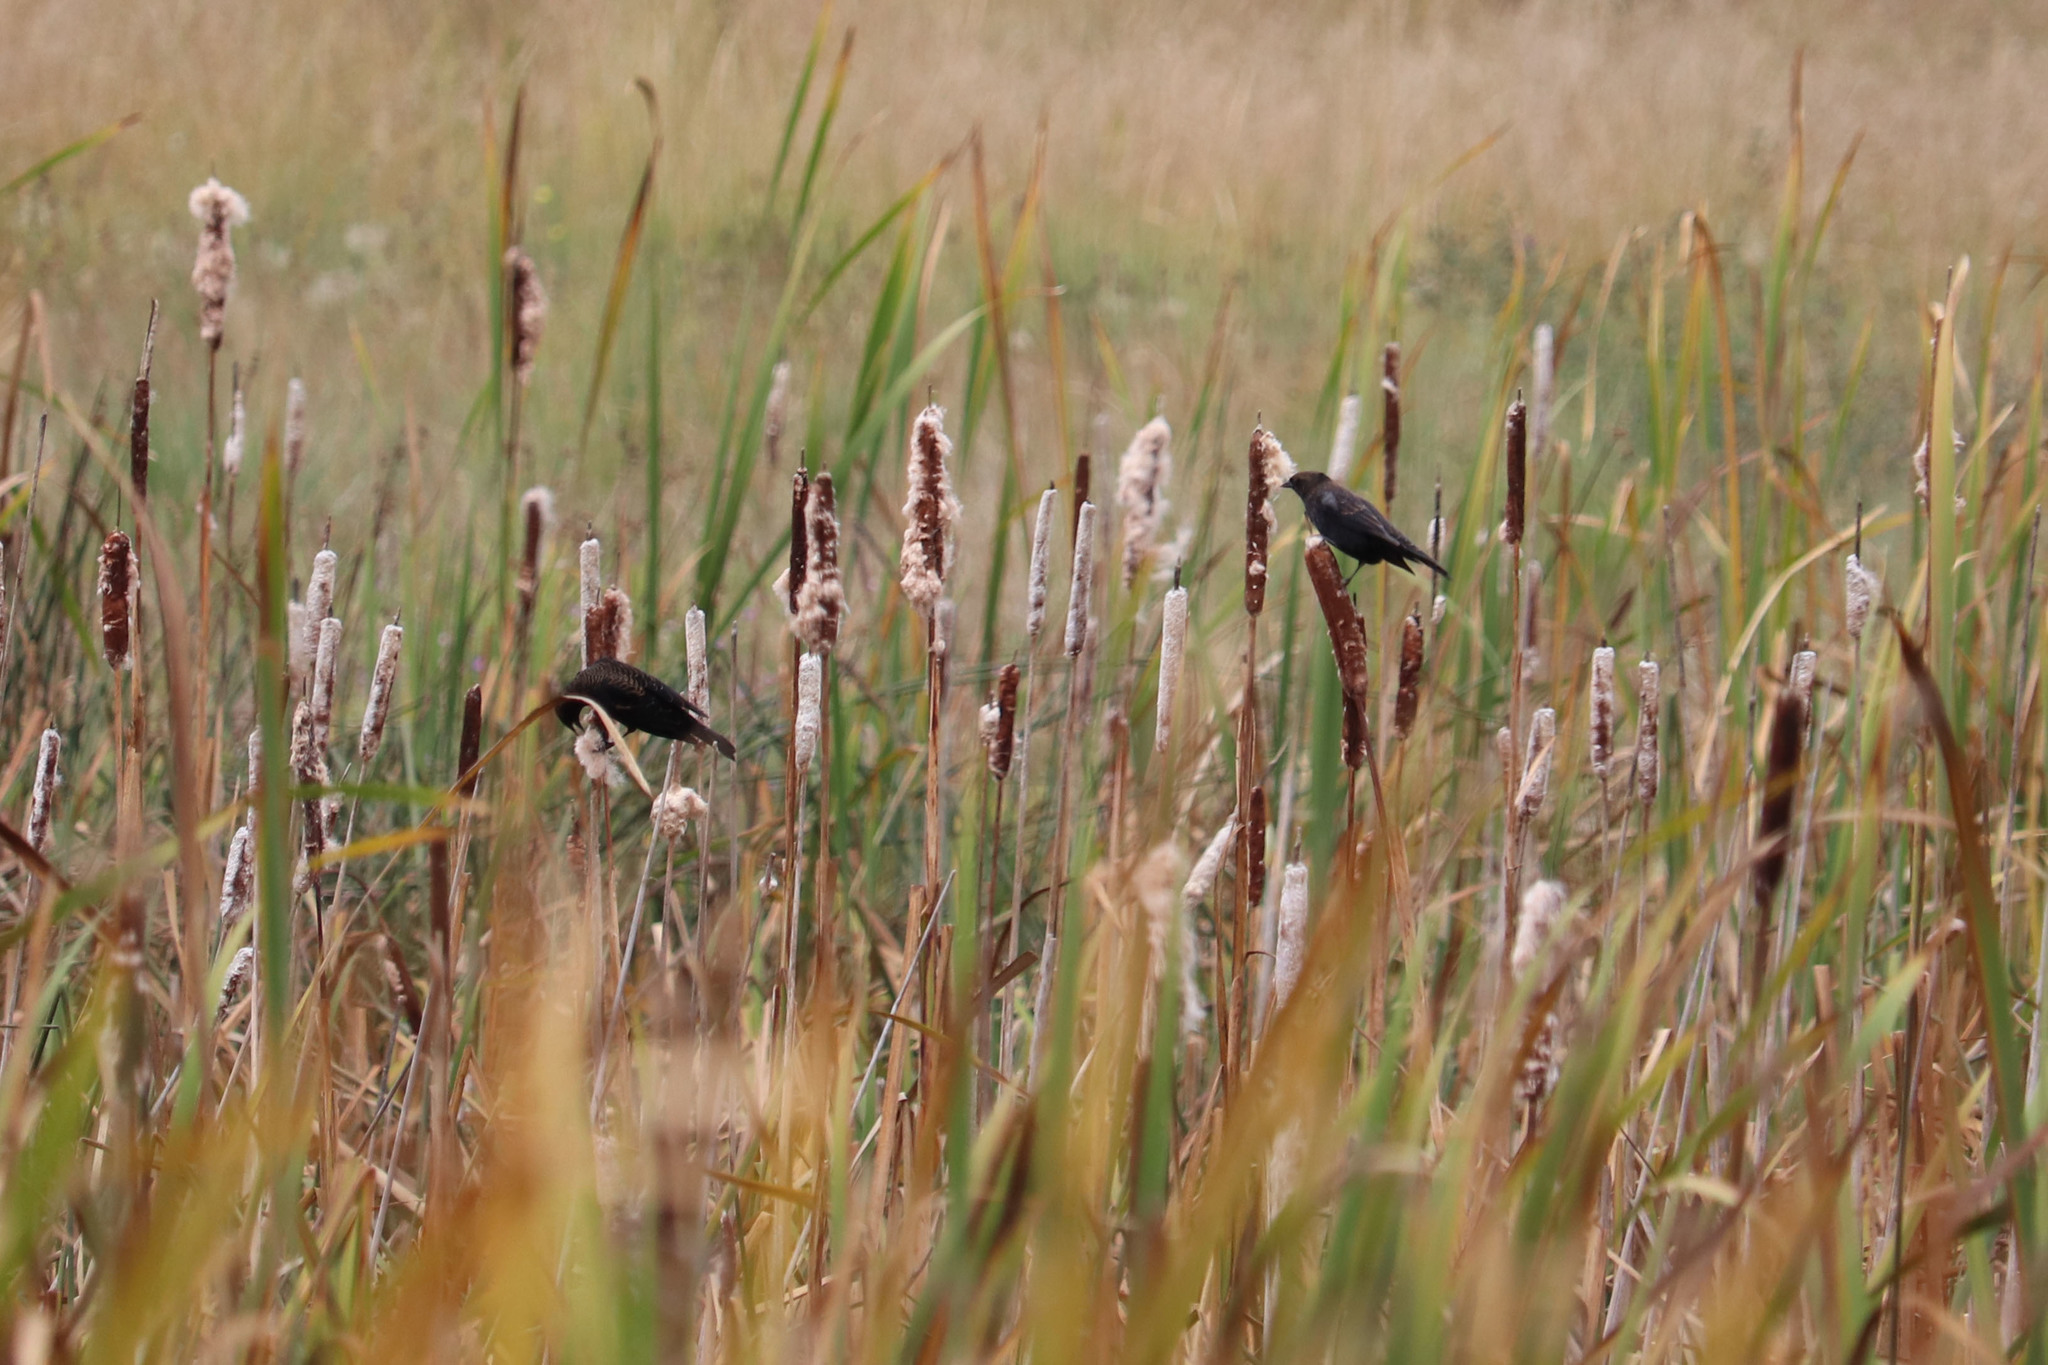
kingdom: Animalia
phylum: Chordata
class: Aves
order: Passeriformes
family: Icteridae
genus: Agelaius
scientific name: Agelaius phoeniceus
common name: Red-winged blackbird
